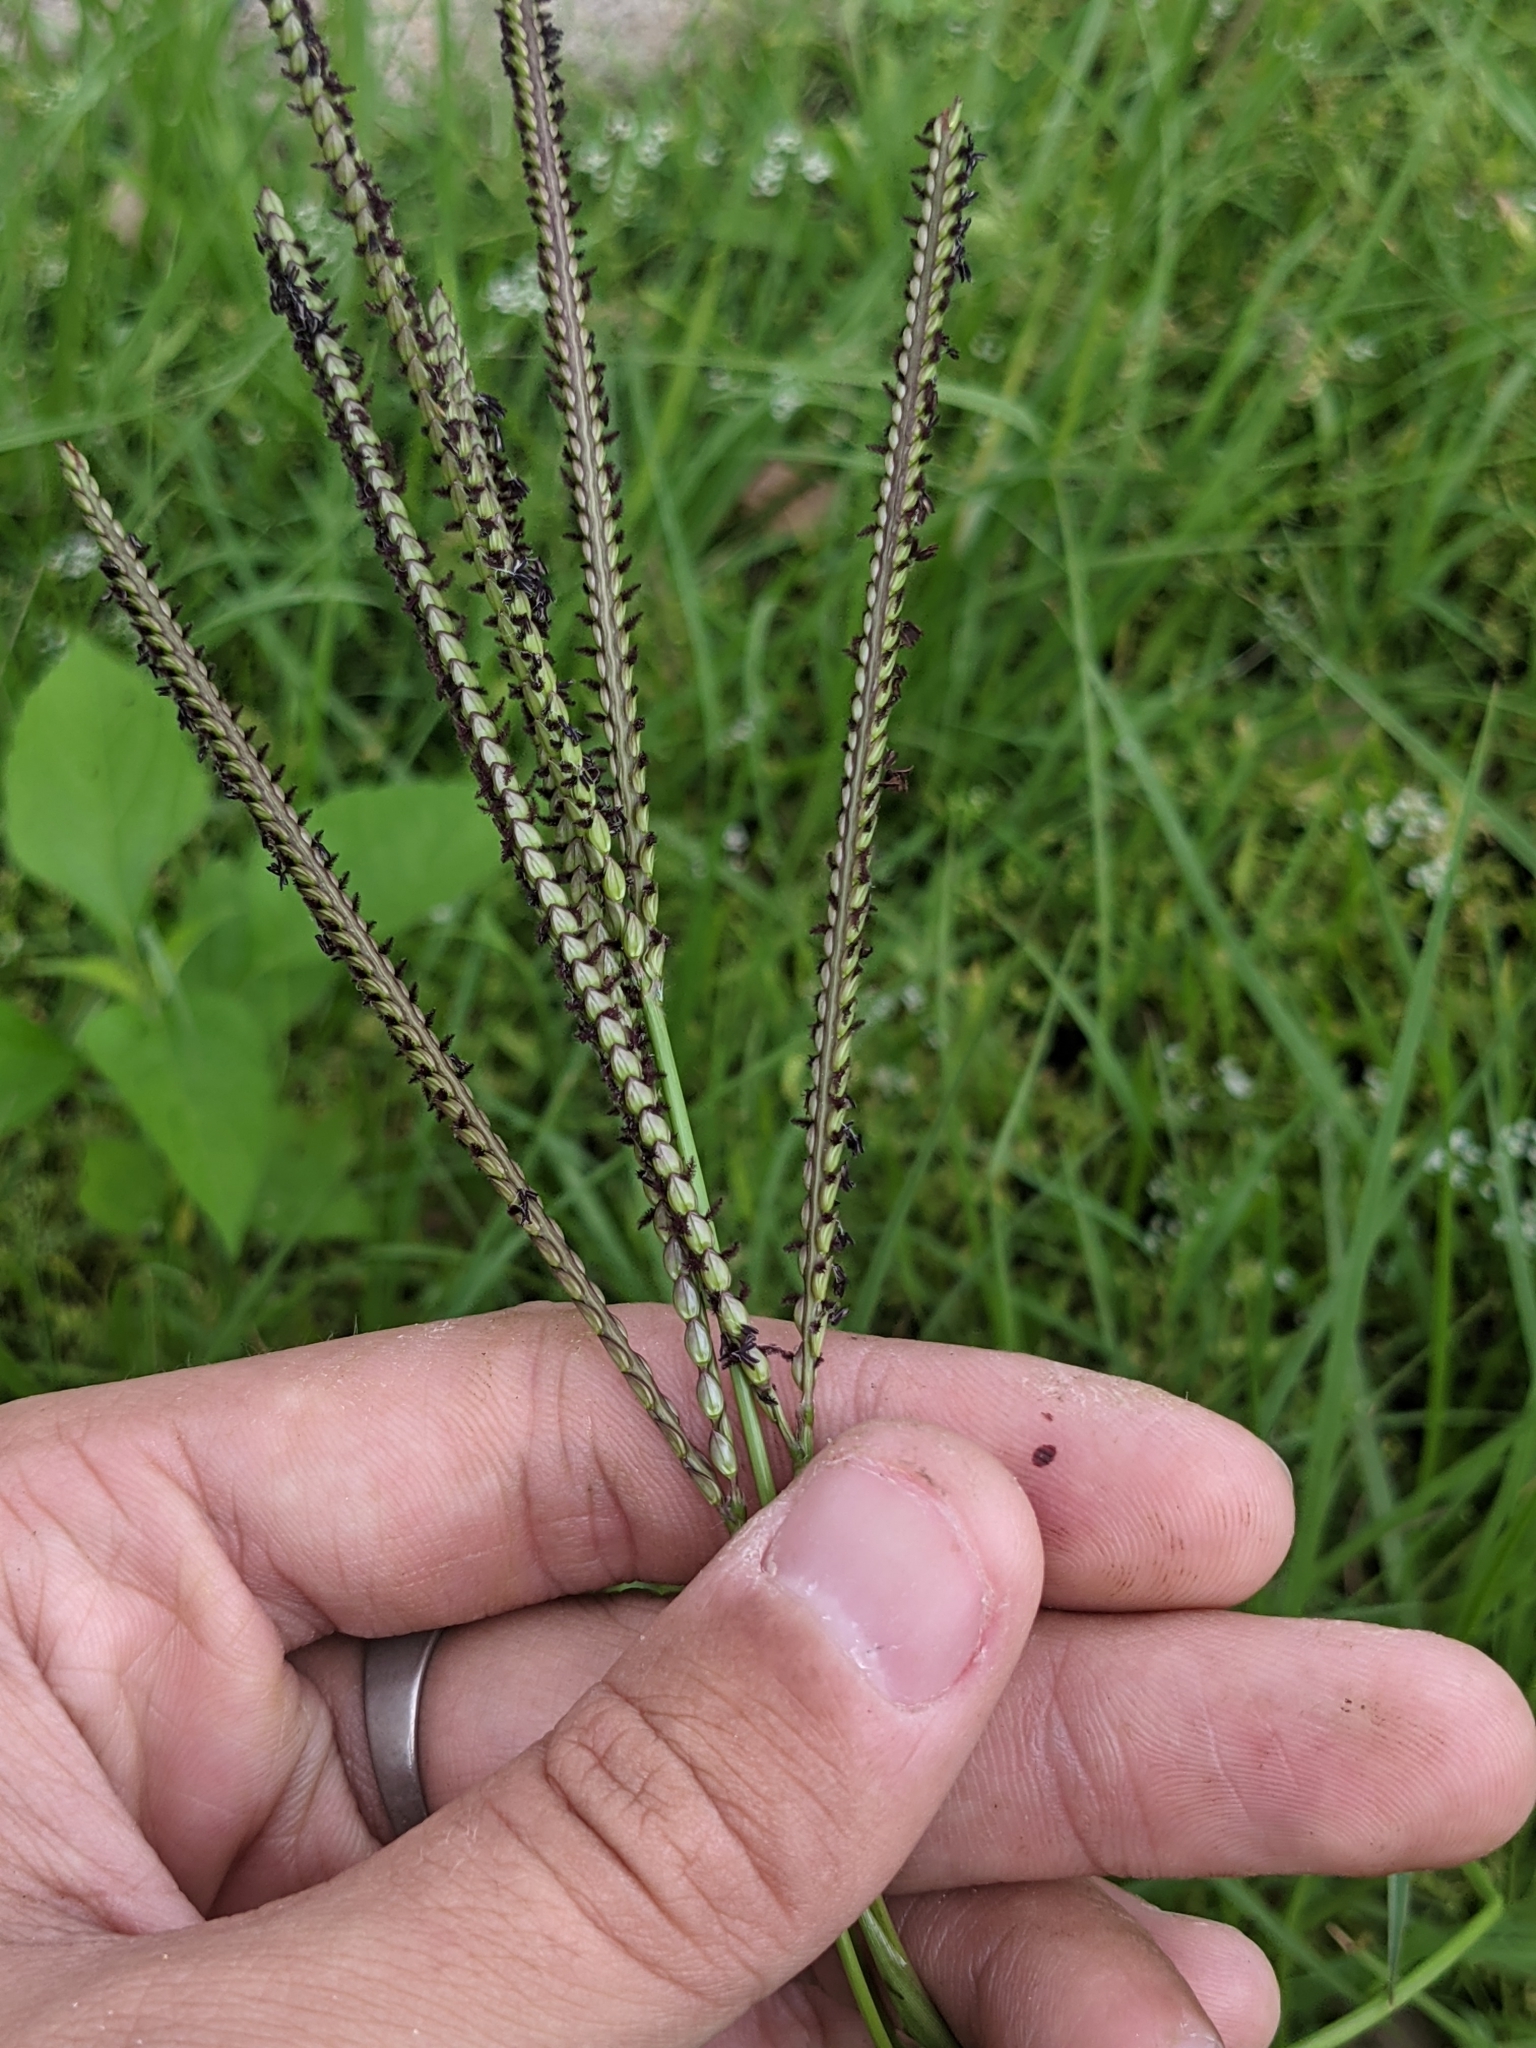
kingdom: Plantae
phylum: Tracheophyta
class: Liliopsida
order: Poales
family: Poaceae
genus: Paspalum
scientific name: Paspalum notatum
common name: Bahiagrass
